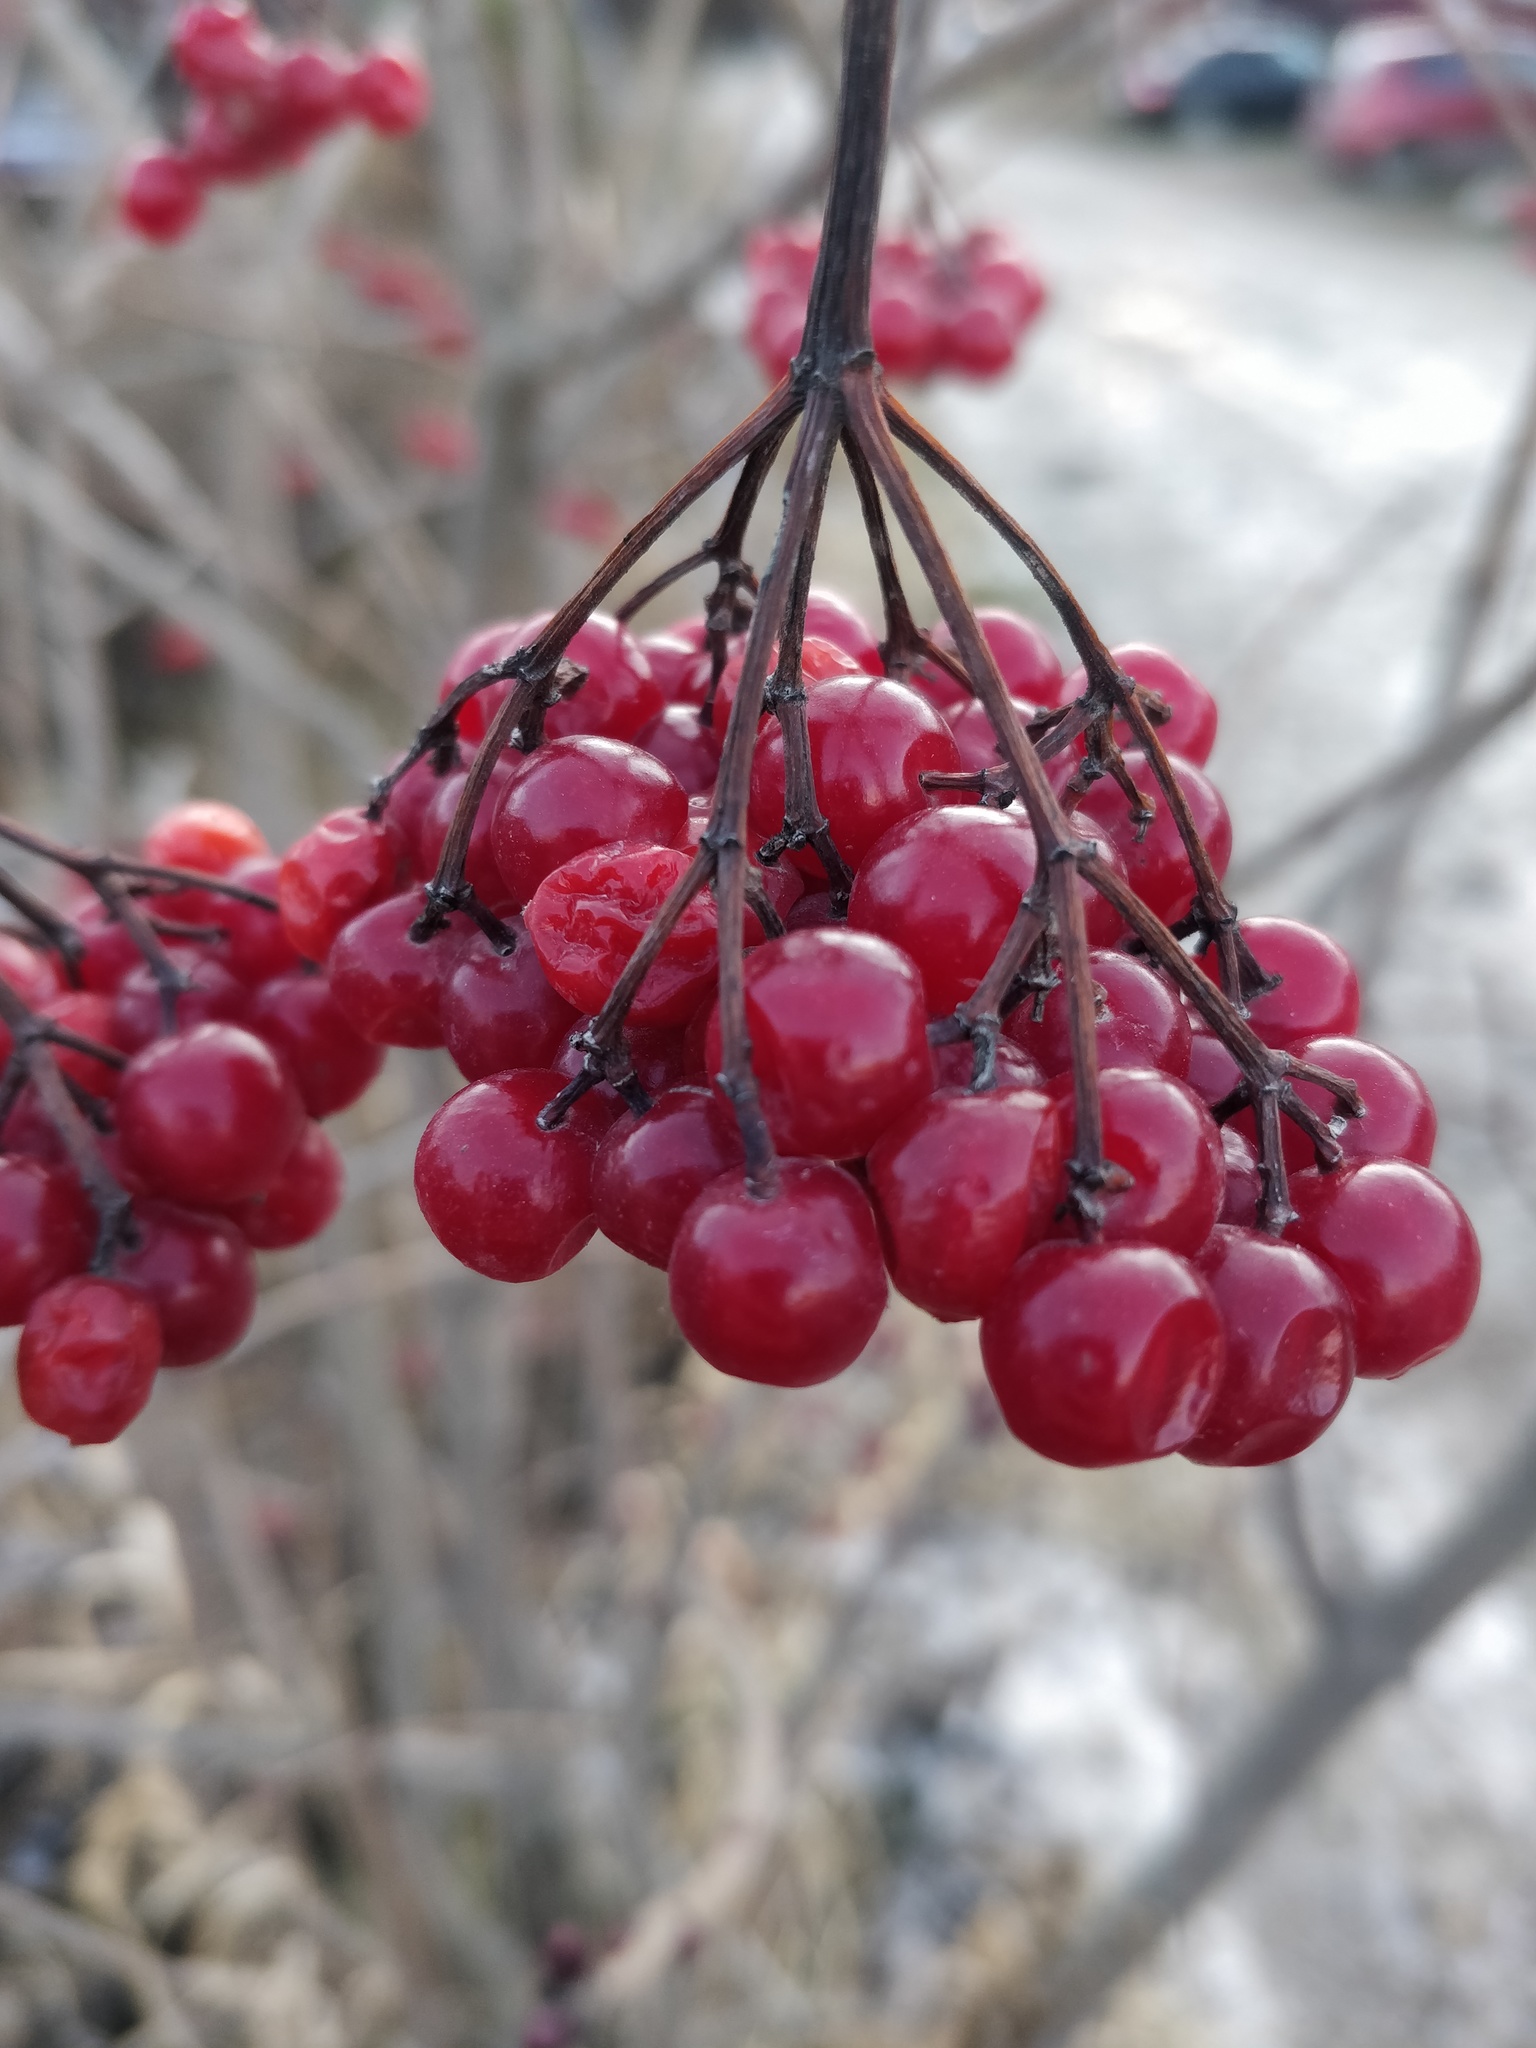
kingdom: Plantae
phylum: Tracheophyta
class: Magnoliopsida
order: Dipsacales
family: Viburnaceae
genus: Viburnum
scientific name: Viburnum opulus
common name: Guelder-rose
